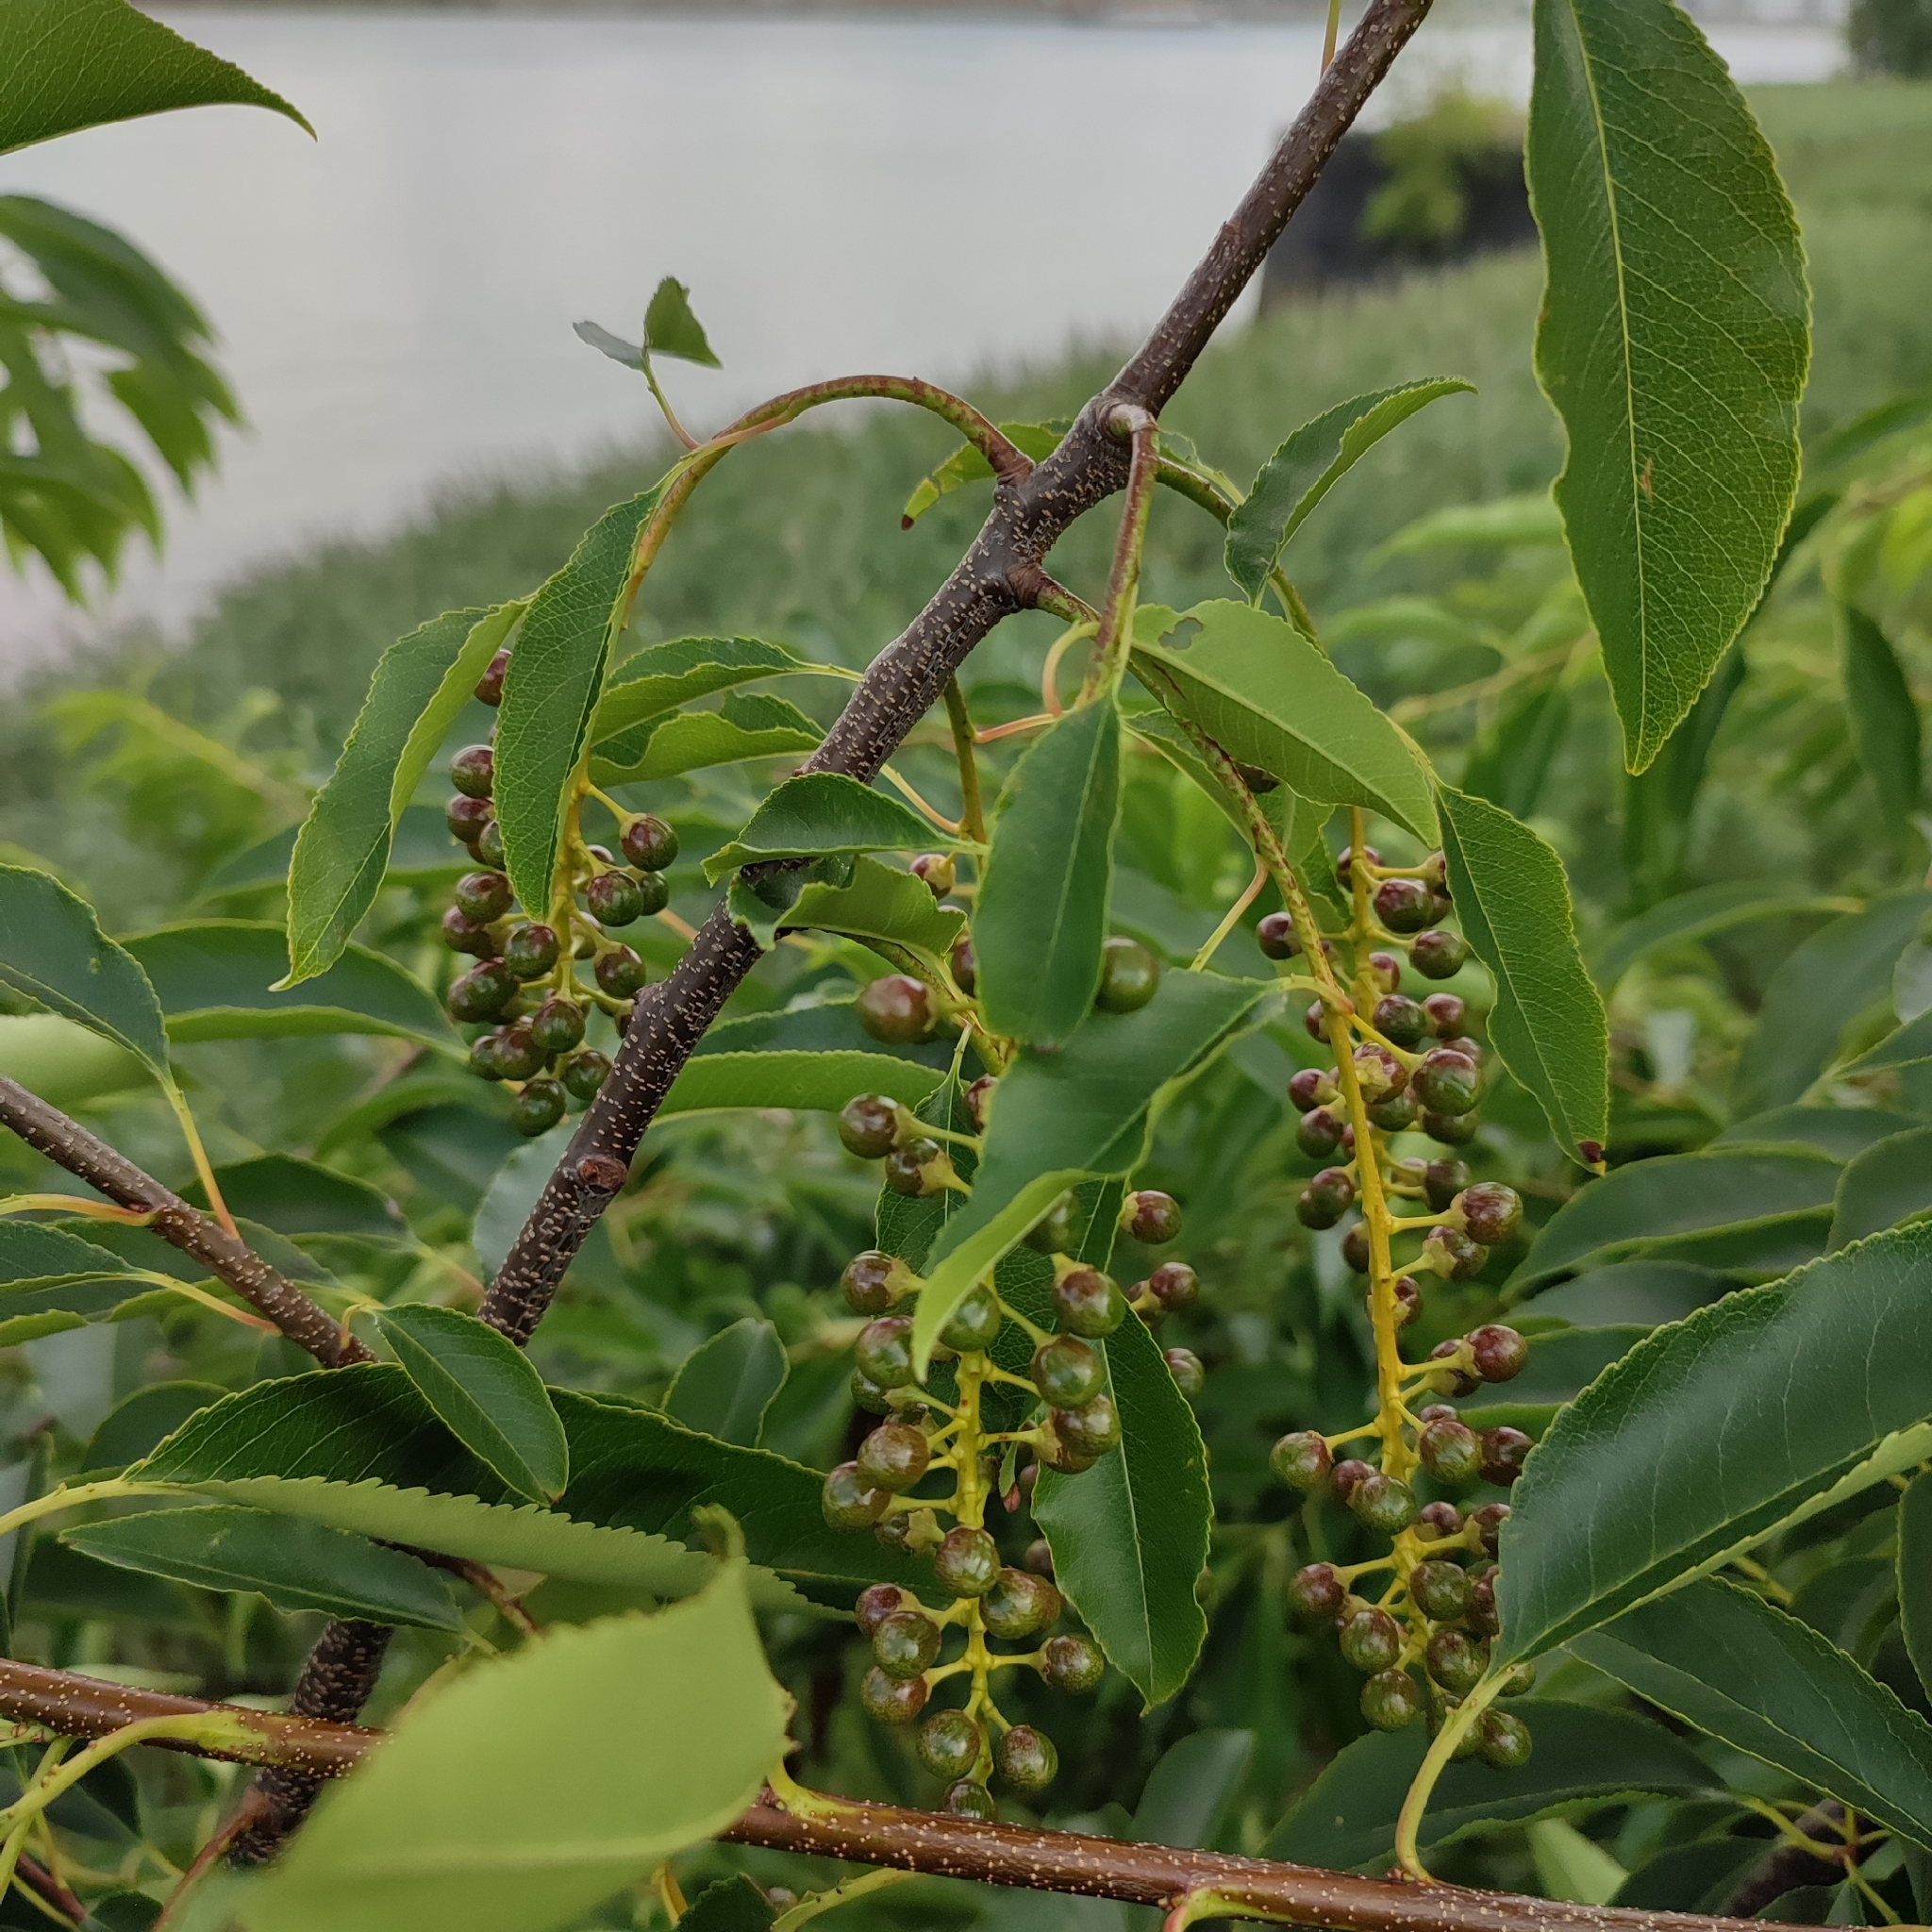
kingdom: Plantae
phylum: Tracheophyta
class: Magnoliopsida
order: Rosales
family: Rosaceae
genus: Prunus
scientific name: Prunus serotina
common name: Black cherry
